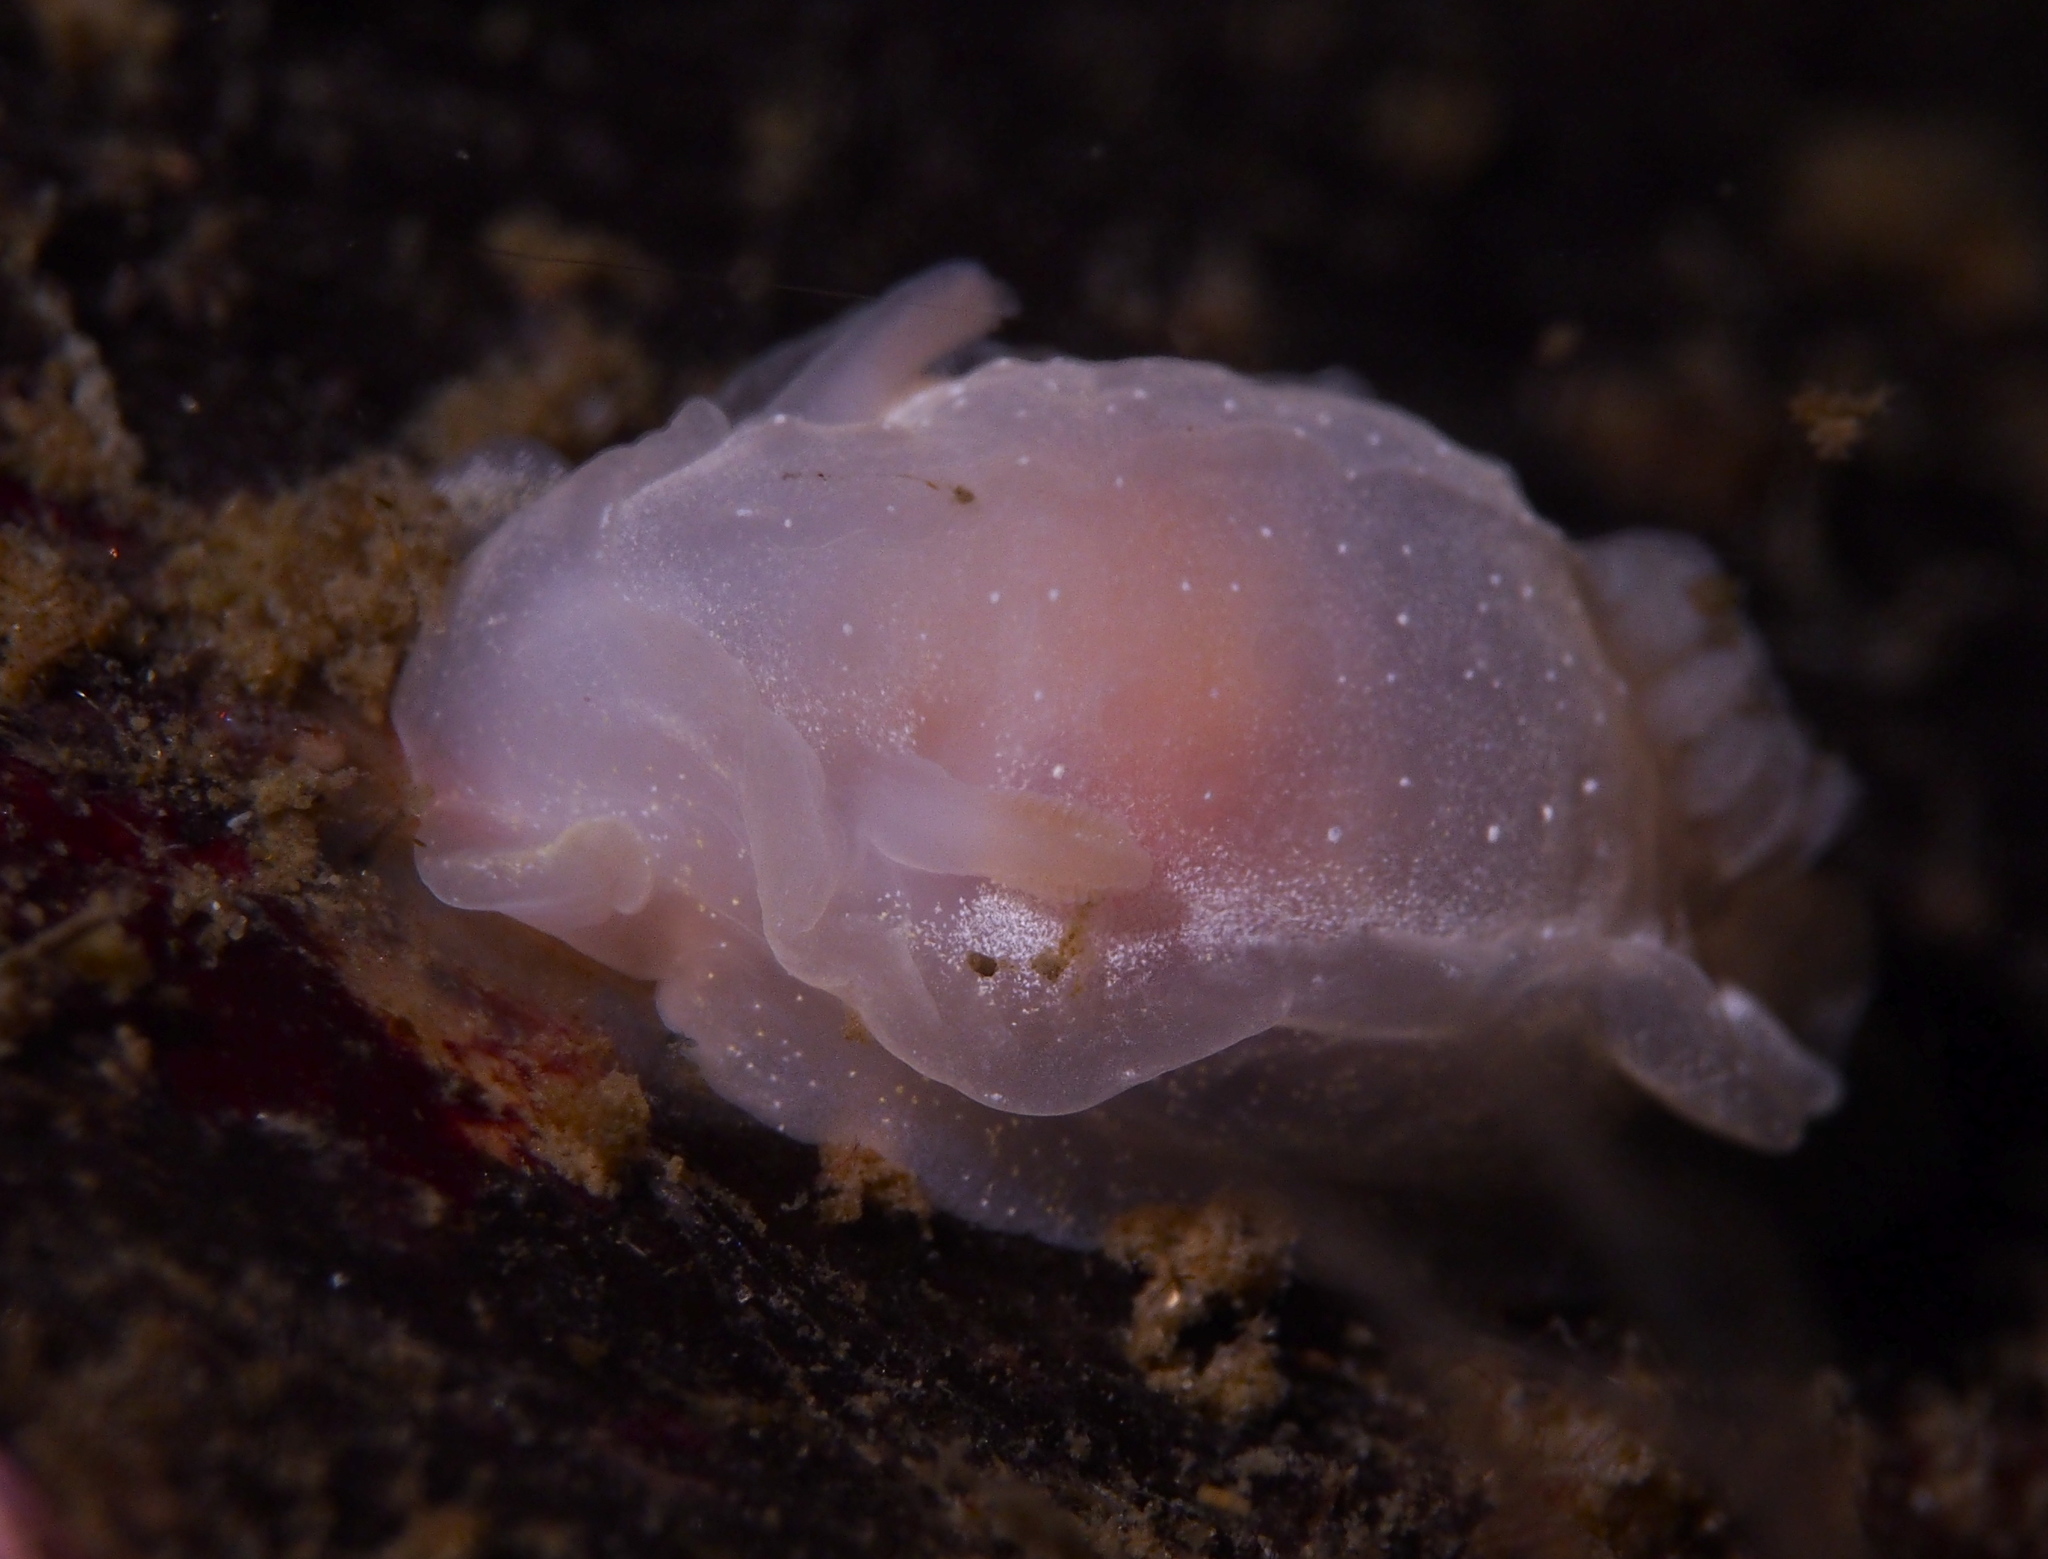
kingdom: Animalia
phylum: Mollusca
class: Gastropoda
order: Nudibranchia
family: Goniodorididae
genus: Okenia
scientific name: Okenia
